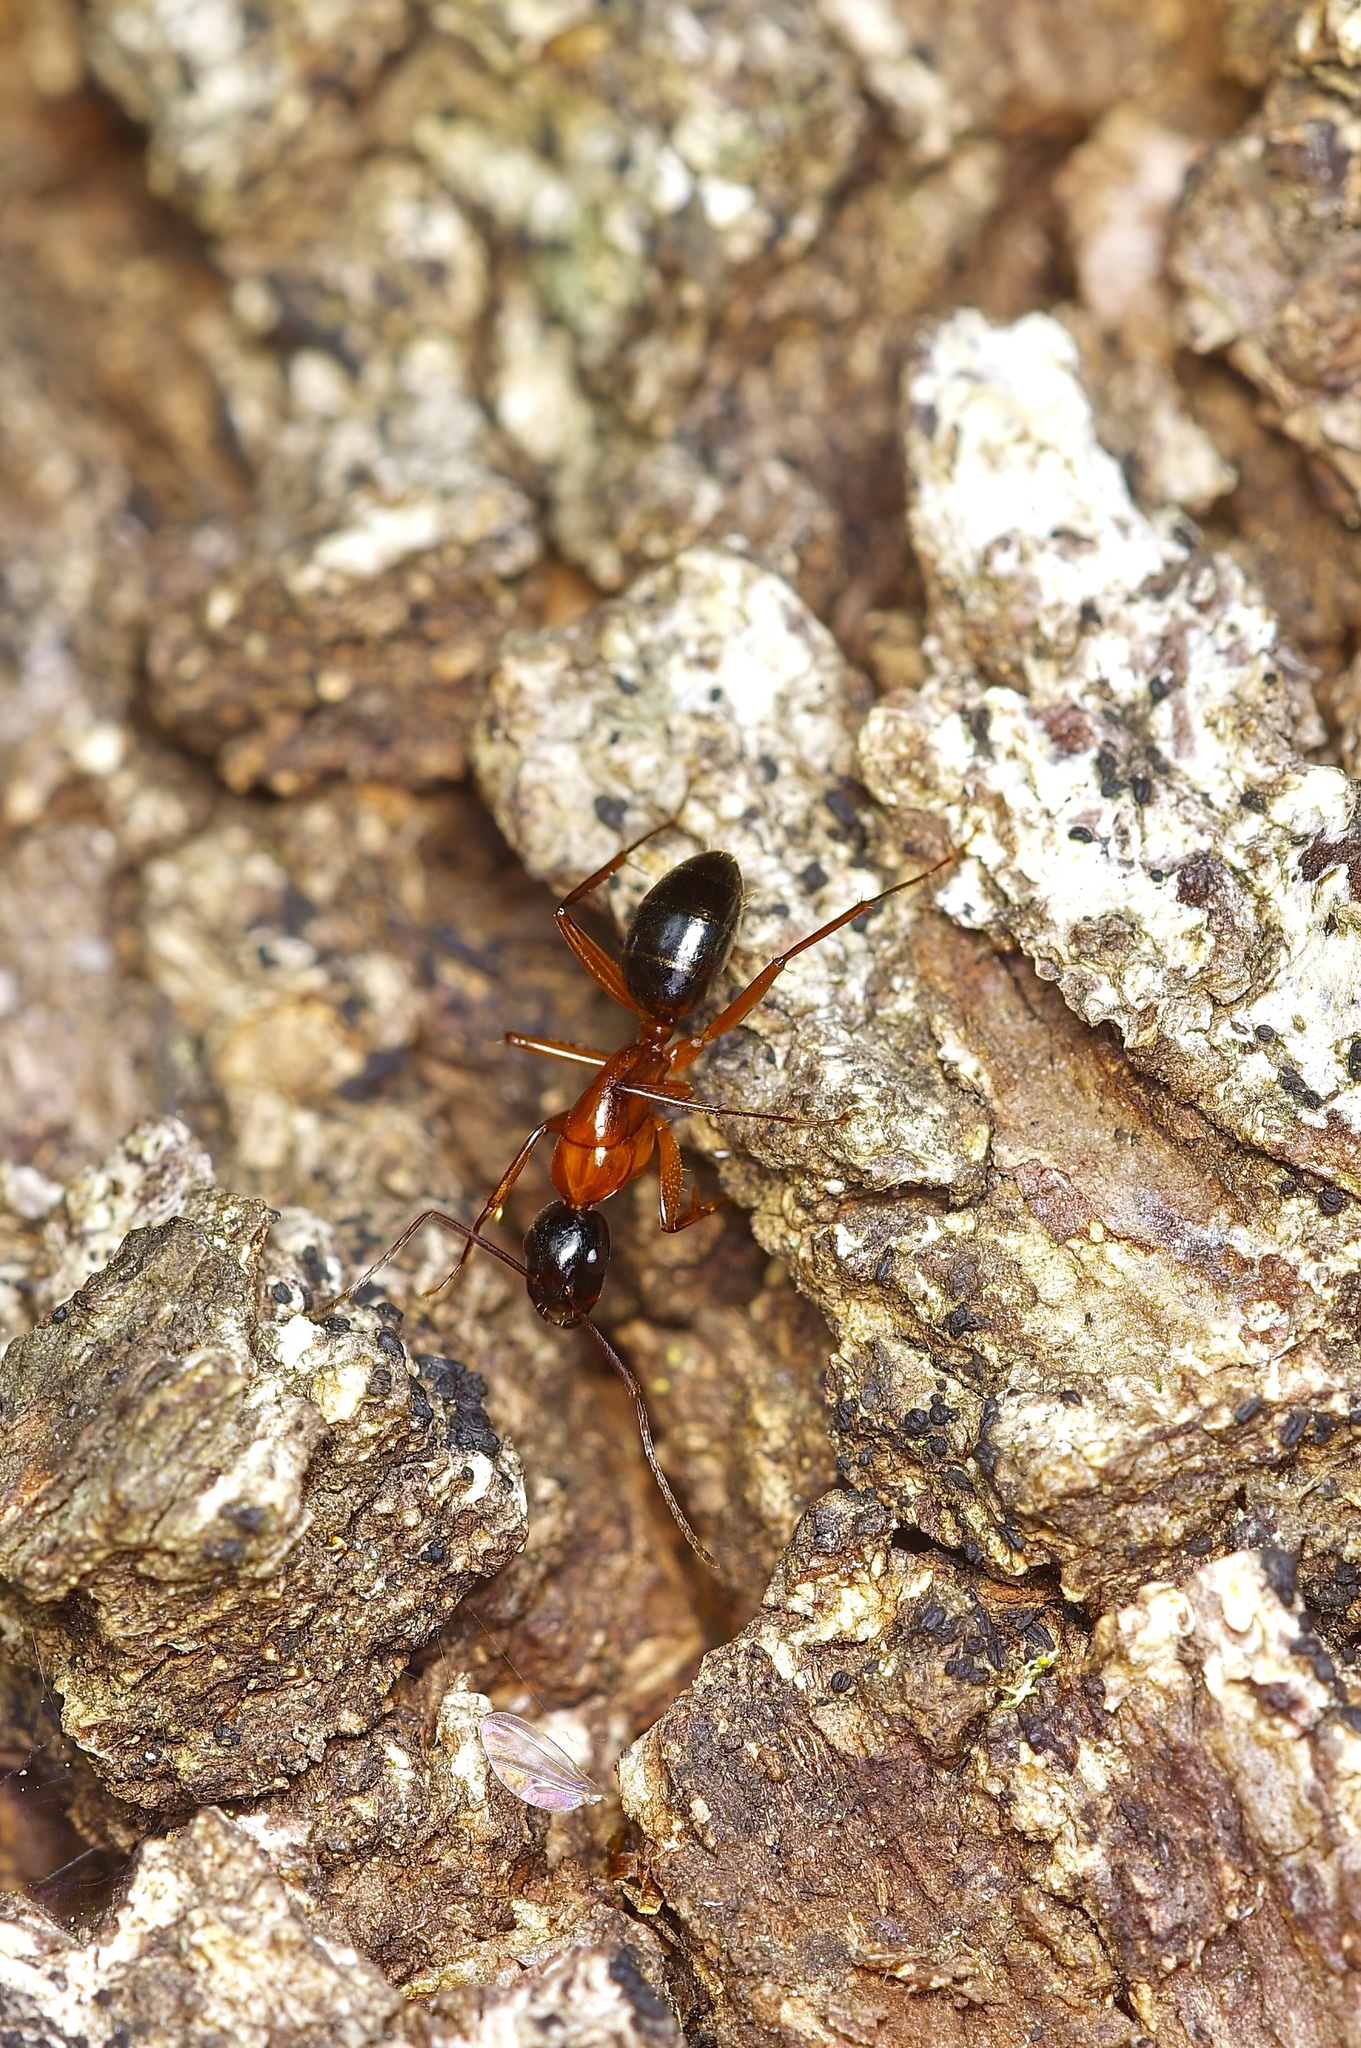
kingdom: Animalia
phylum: Arthropoda
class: Insecta
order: Hymenoptera
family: Formicidae
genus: Camponotus
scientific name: Camponotus texanus
